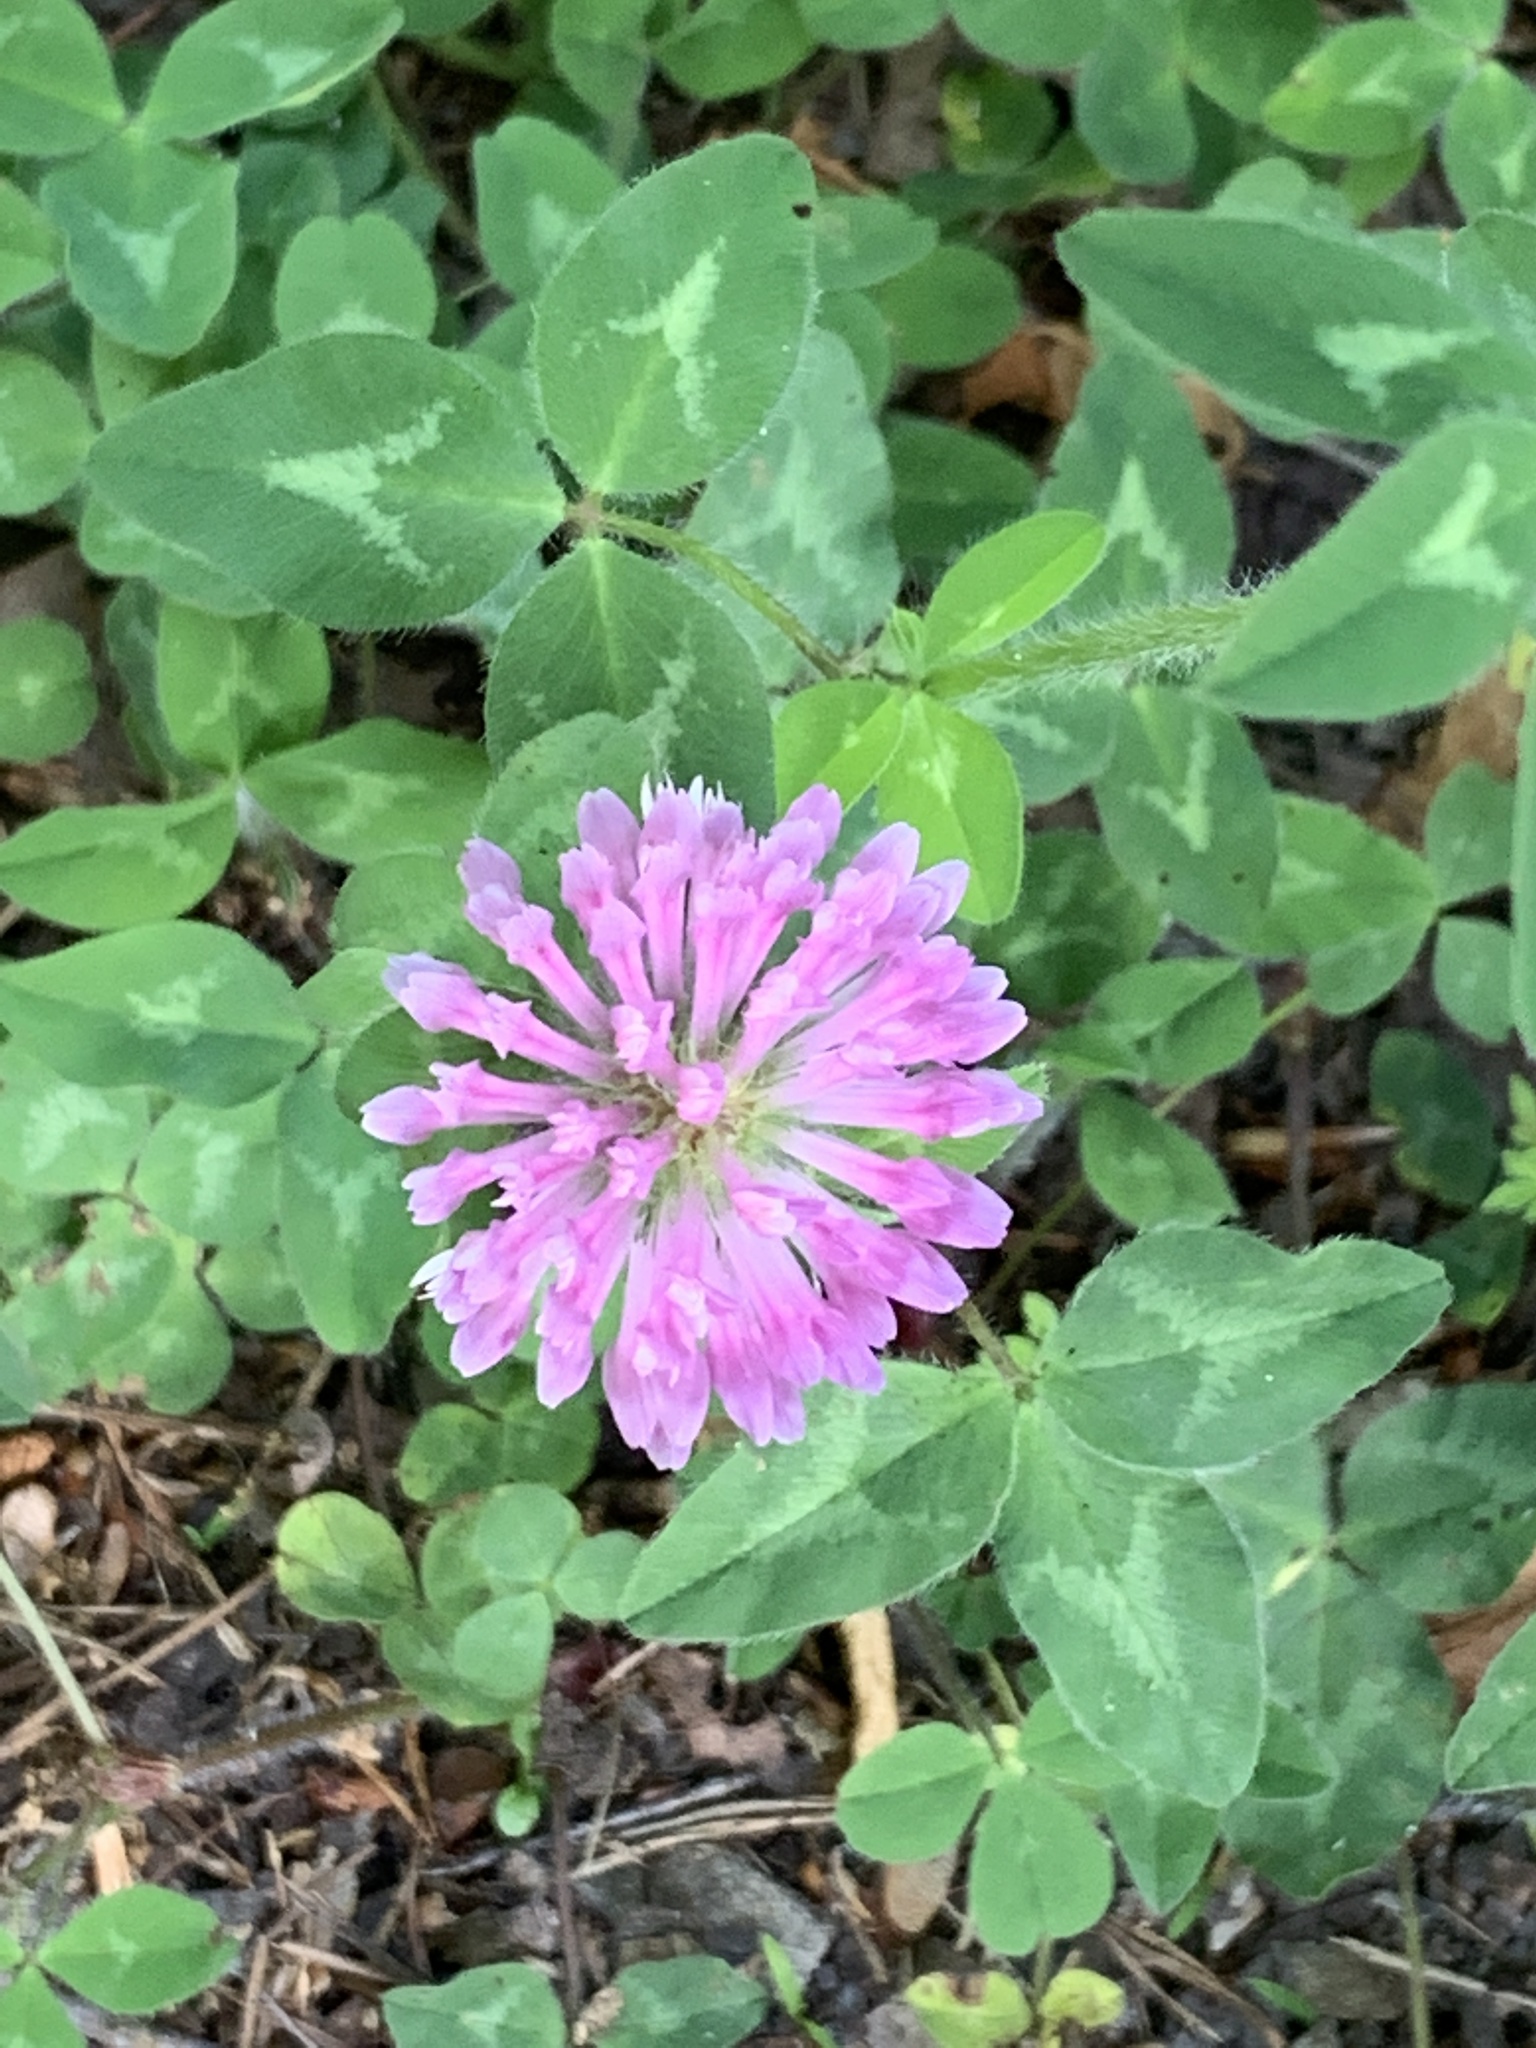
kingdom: Plantae
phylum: Tracheophyta
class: Magnoliopsida
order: Fabales
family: Fabaceae
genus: Trifolium
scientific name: Trifolium pratense
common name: Red clover
